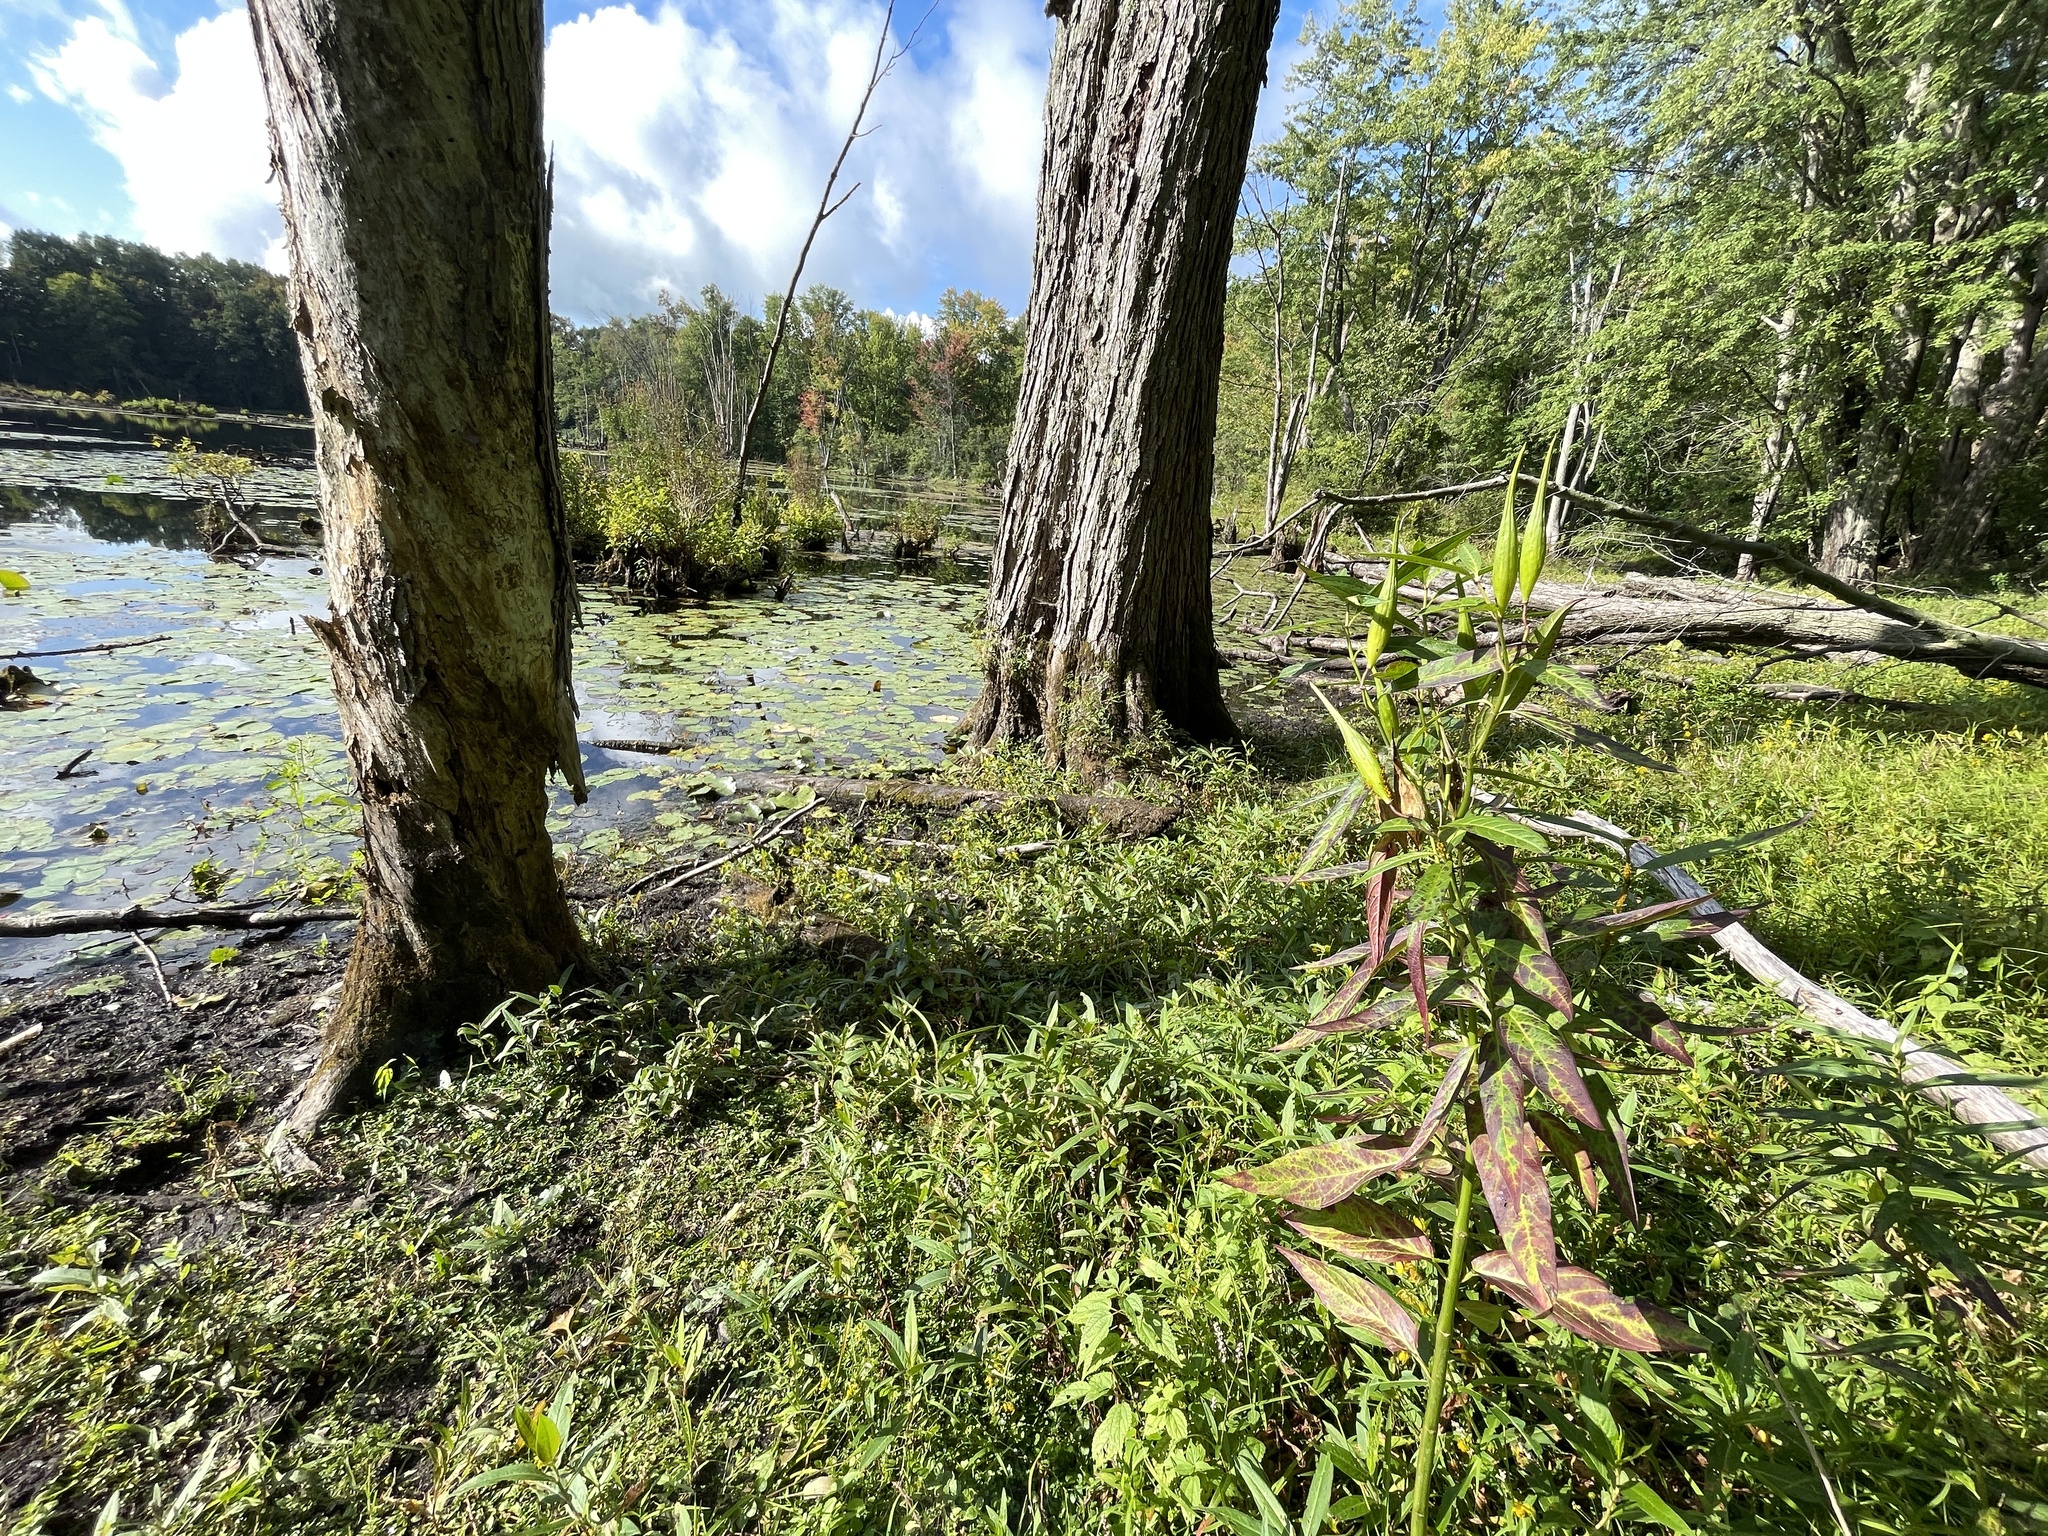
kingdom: Plantae
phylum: Tracheophyta
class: Magnoliopsida
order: Gentianales
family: Apocynaceae
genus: Asclepias
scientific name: Asclepias incarnata
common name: Swamp milkweed
